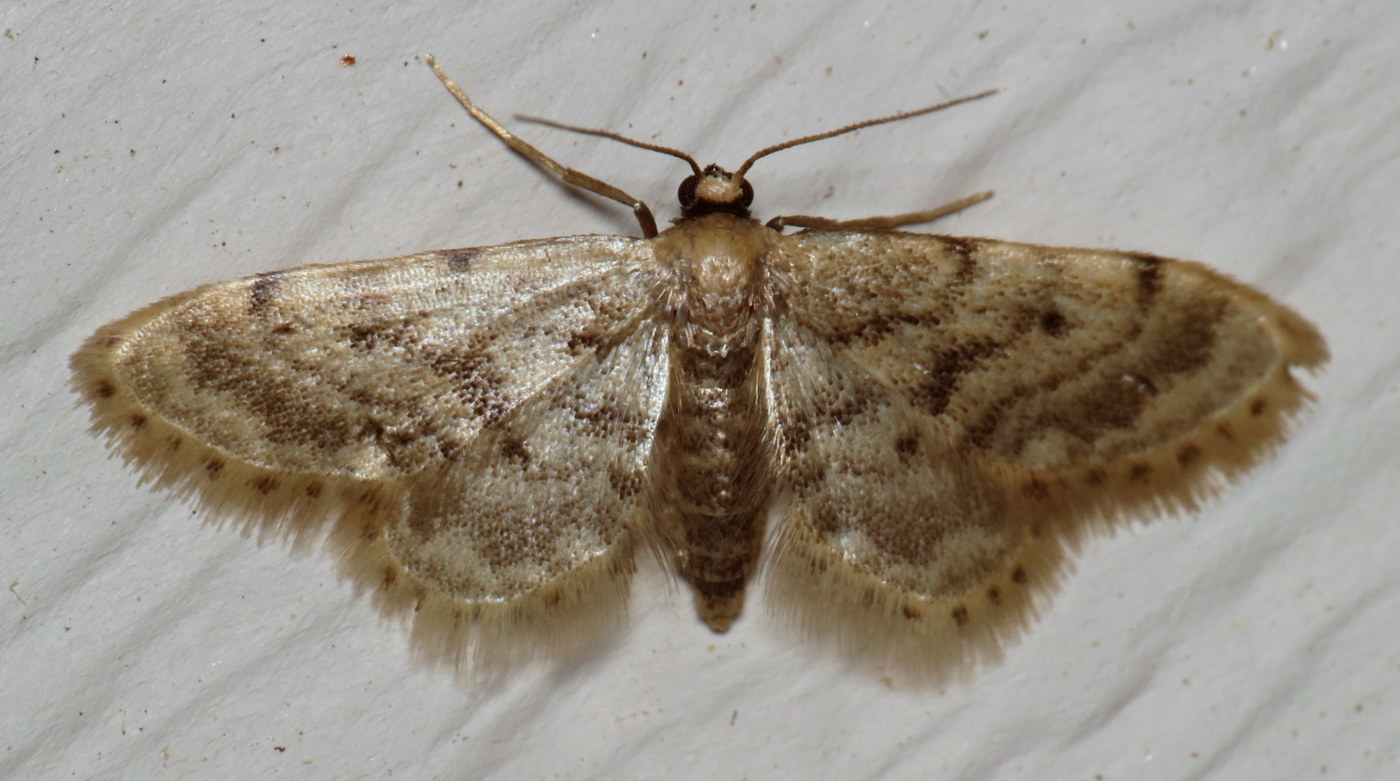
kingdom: Animalia
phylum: Arthropoda
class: Insecta
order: Lepidoptera
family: Geometridae
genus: Idaea
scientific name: Idaea bonifata
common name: Fortunate wave
